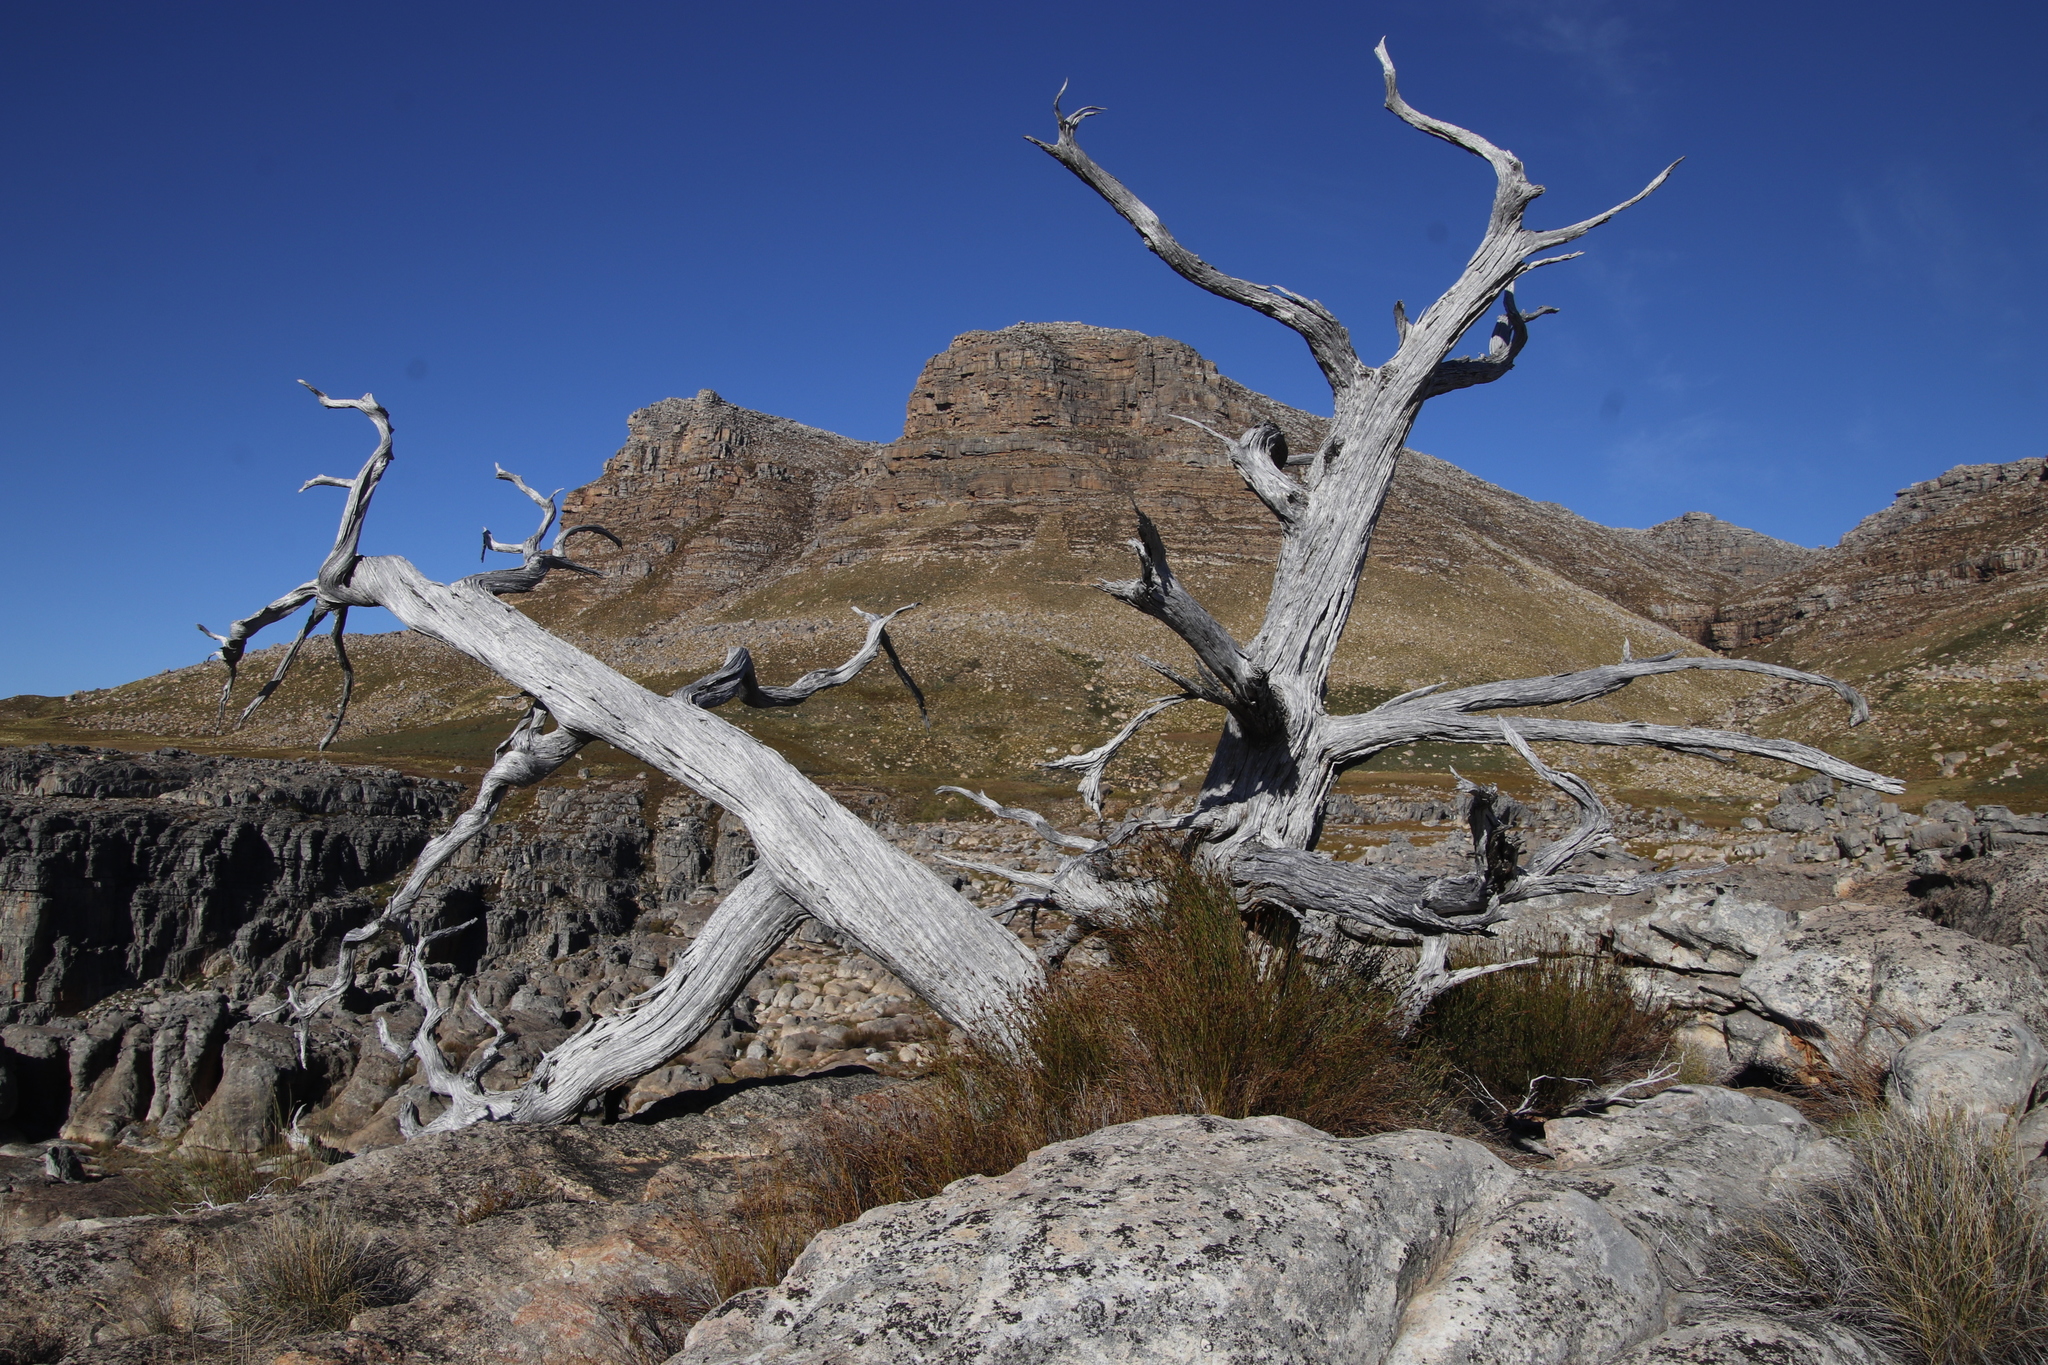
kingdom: Plantae
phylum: Tracheophyta
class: Pinopsida
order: Pinales
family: Cupressaceae
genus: Widdringtonia
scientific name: Widdringtonia nodiflora
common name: Cape cypress
